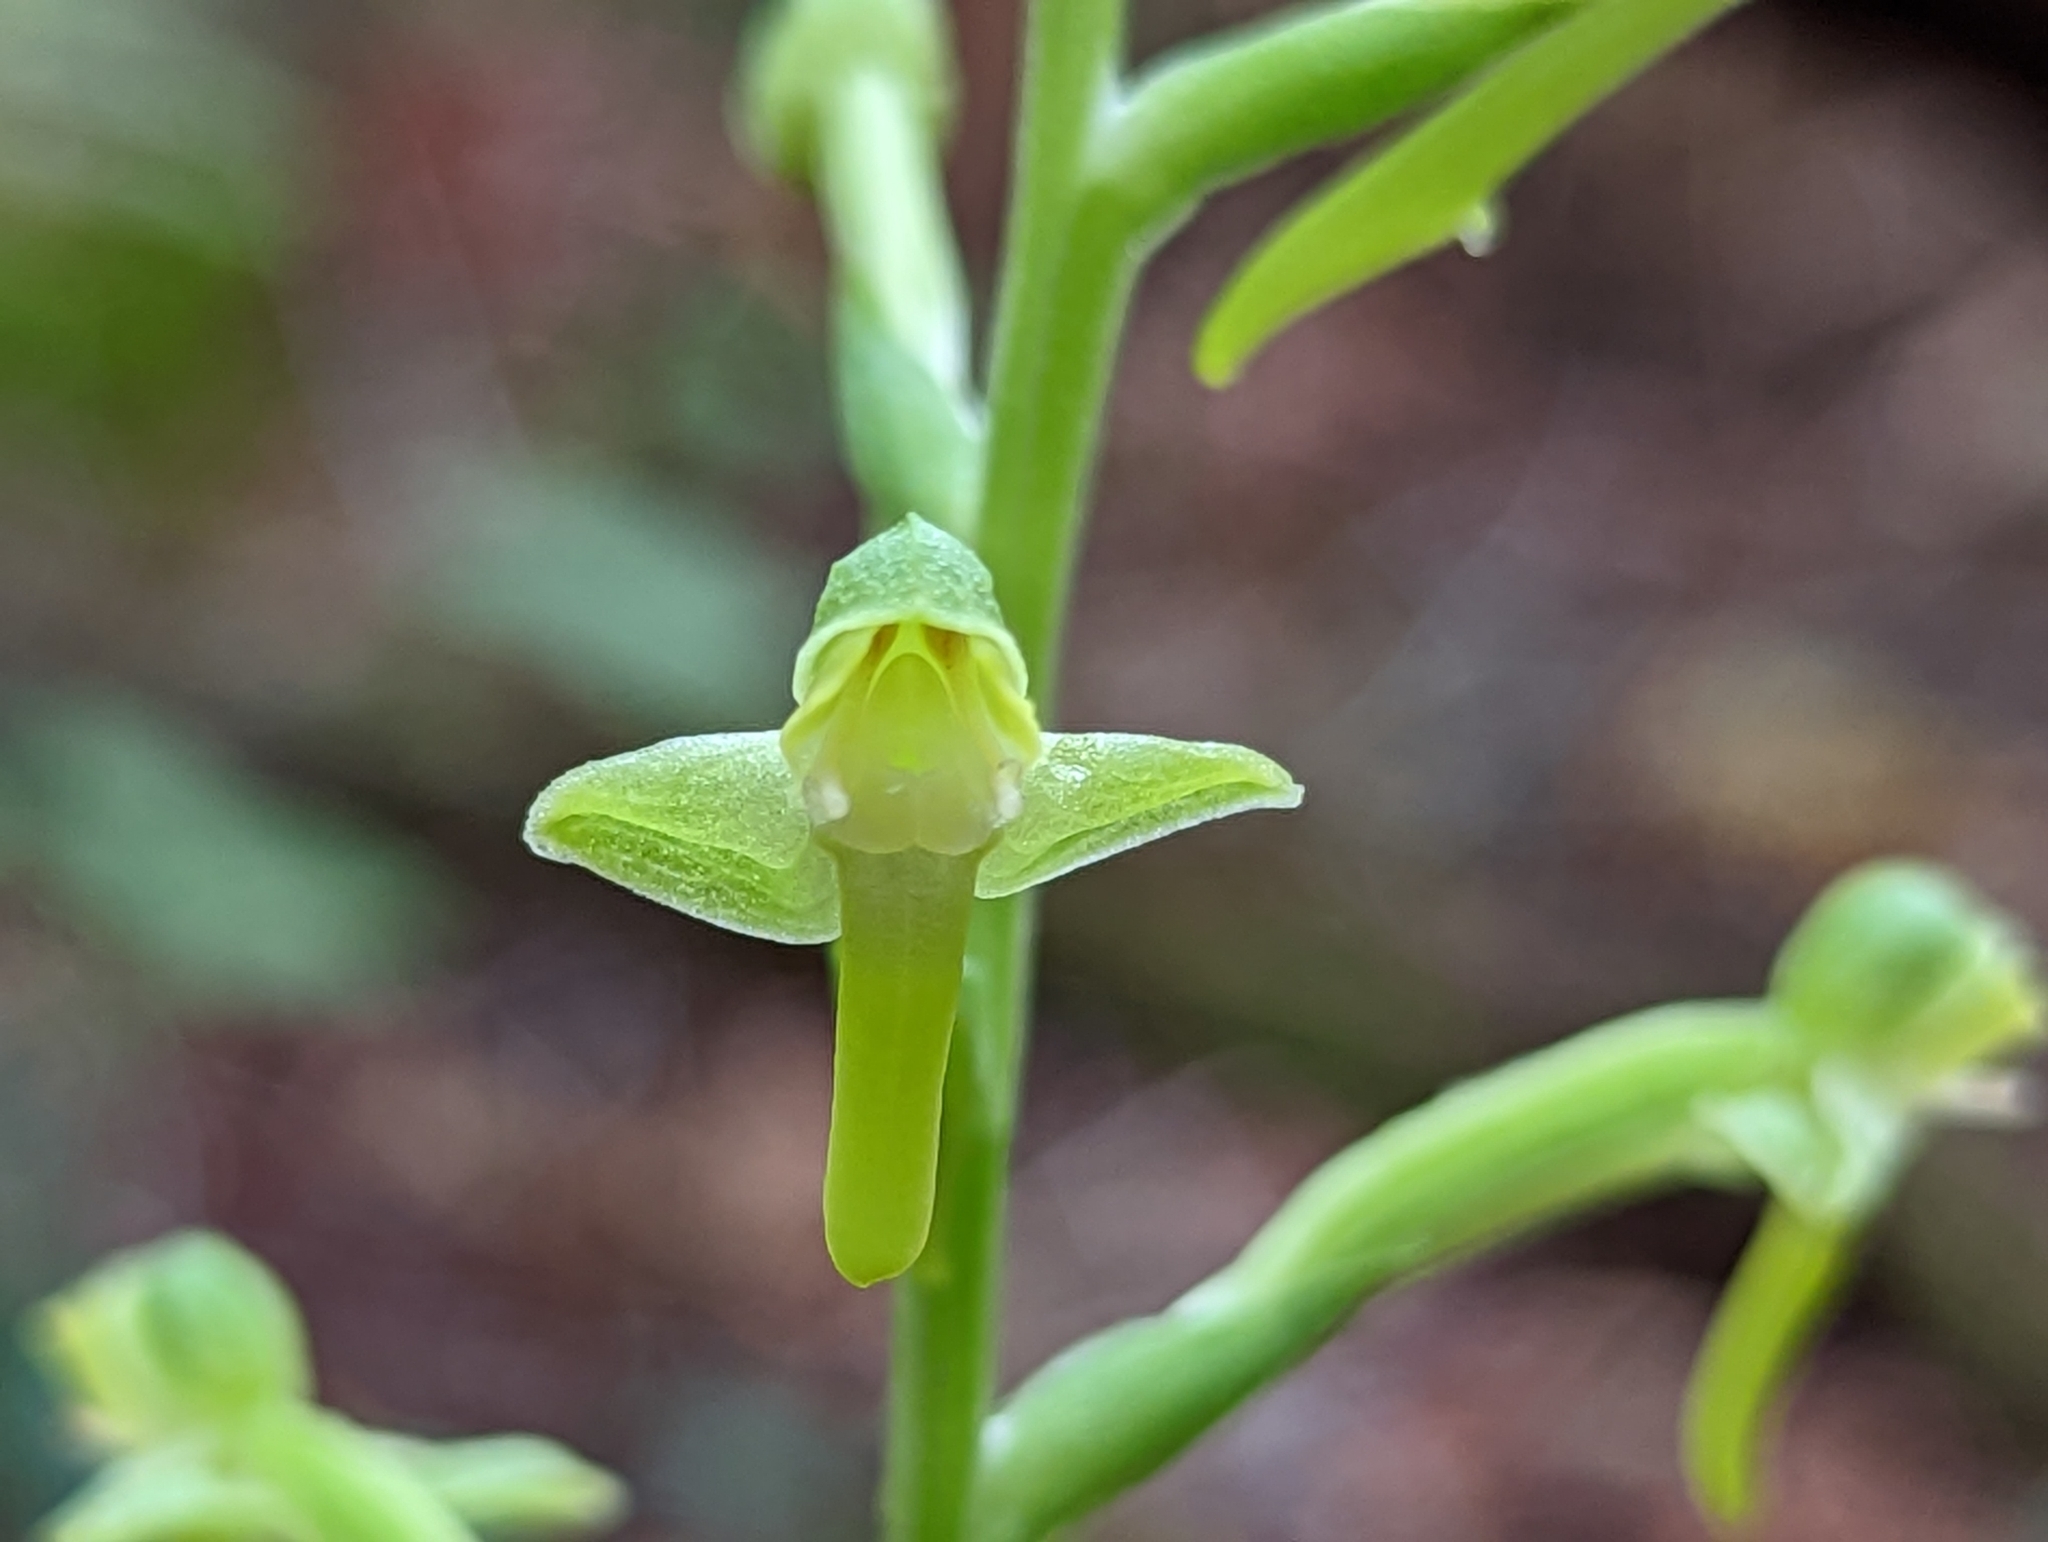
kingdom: Plantae
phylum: Tracheophyta
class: Liliopsida
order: Asparagales
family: Orchidaceae
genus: Habenaria
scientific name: Habenaria floribunda
